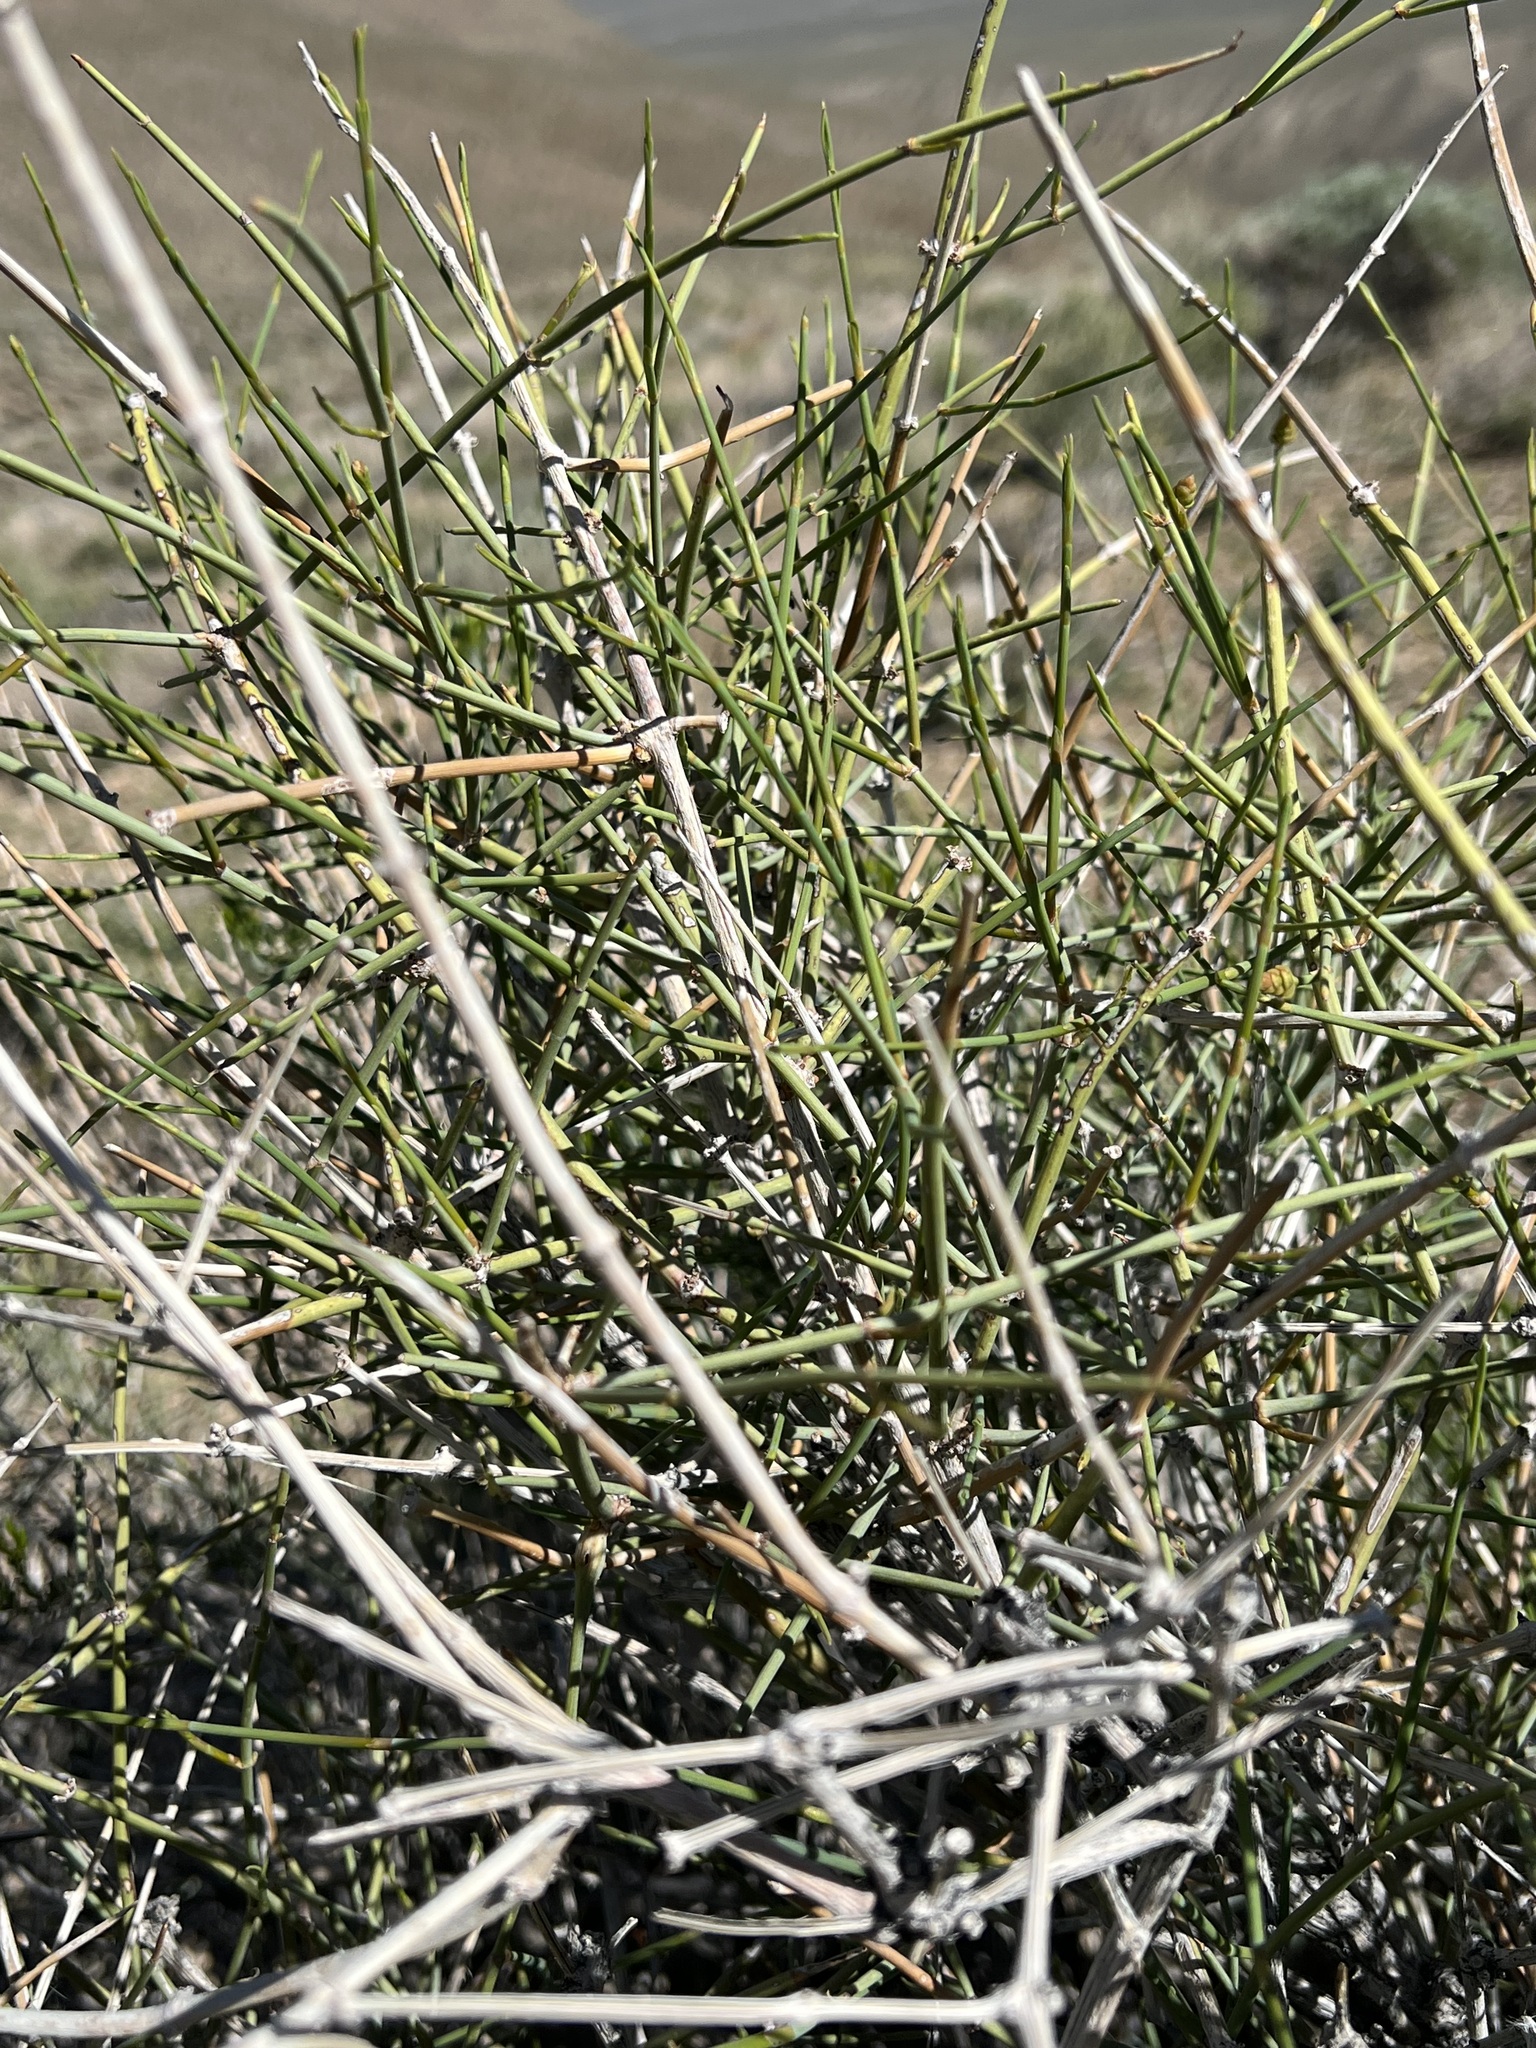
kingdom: Plantae
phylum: Tracheophyta
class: Gnetopsida
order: Ephedrales
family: Ephedraceae
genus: Ephedra
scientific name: Ephedra nevadensis
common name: Gray ephedra
